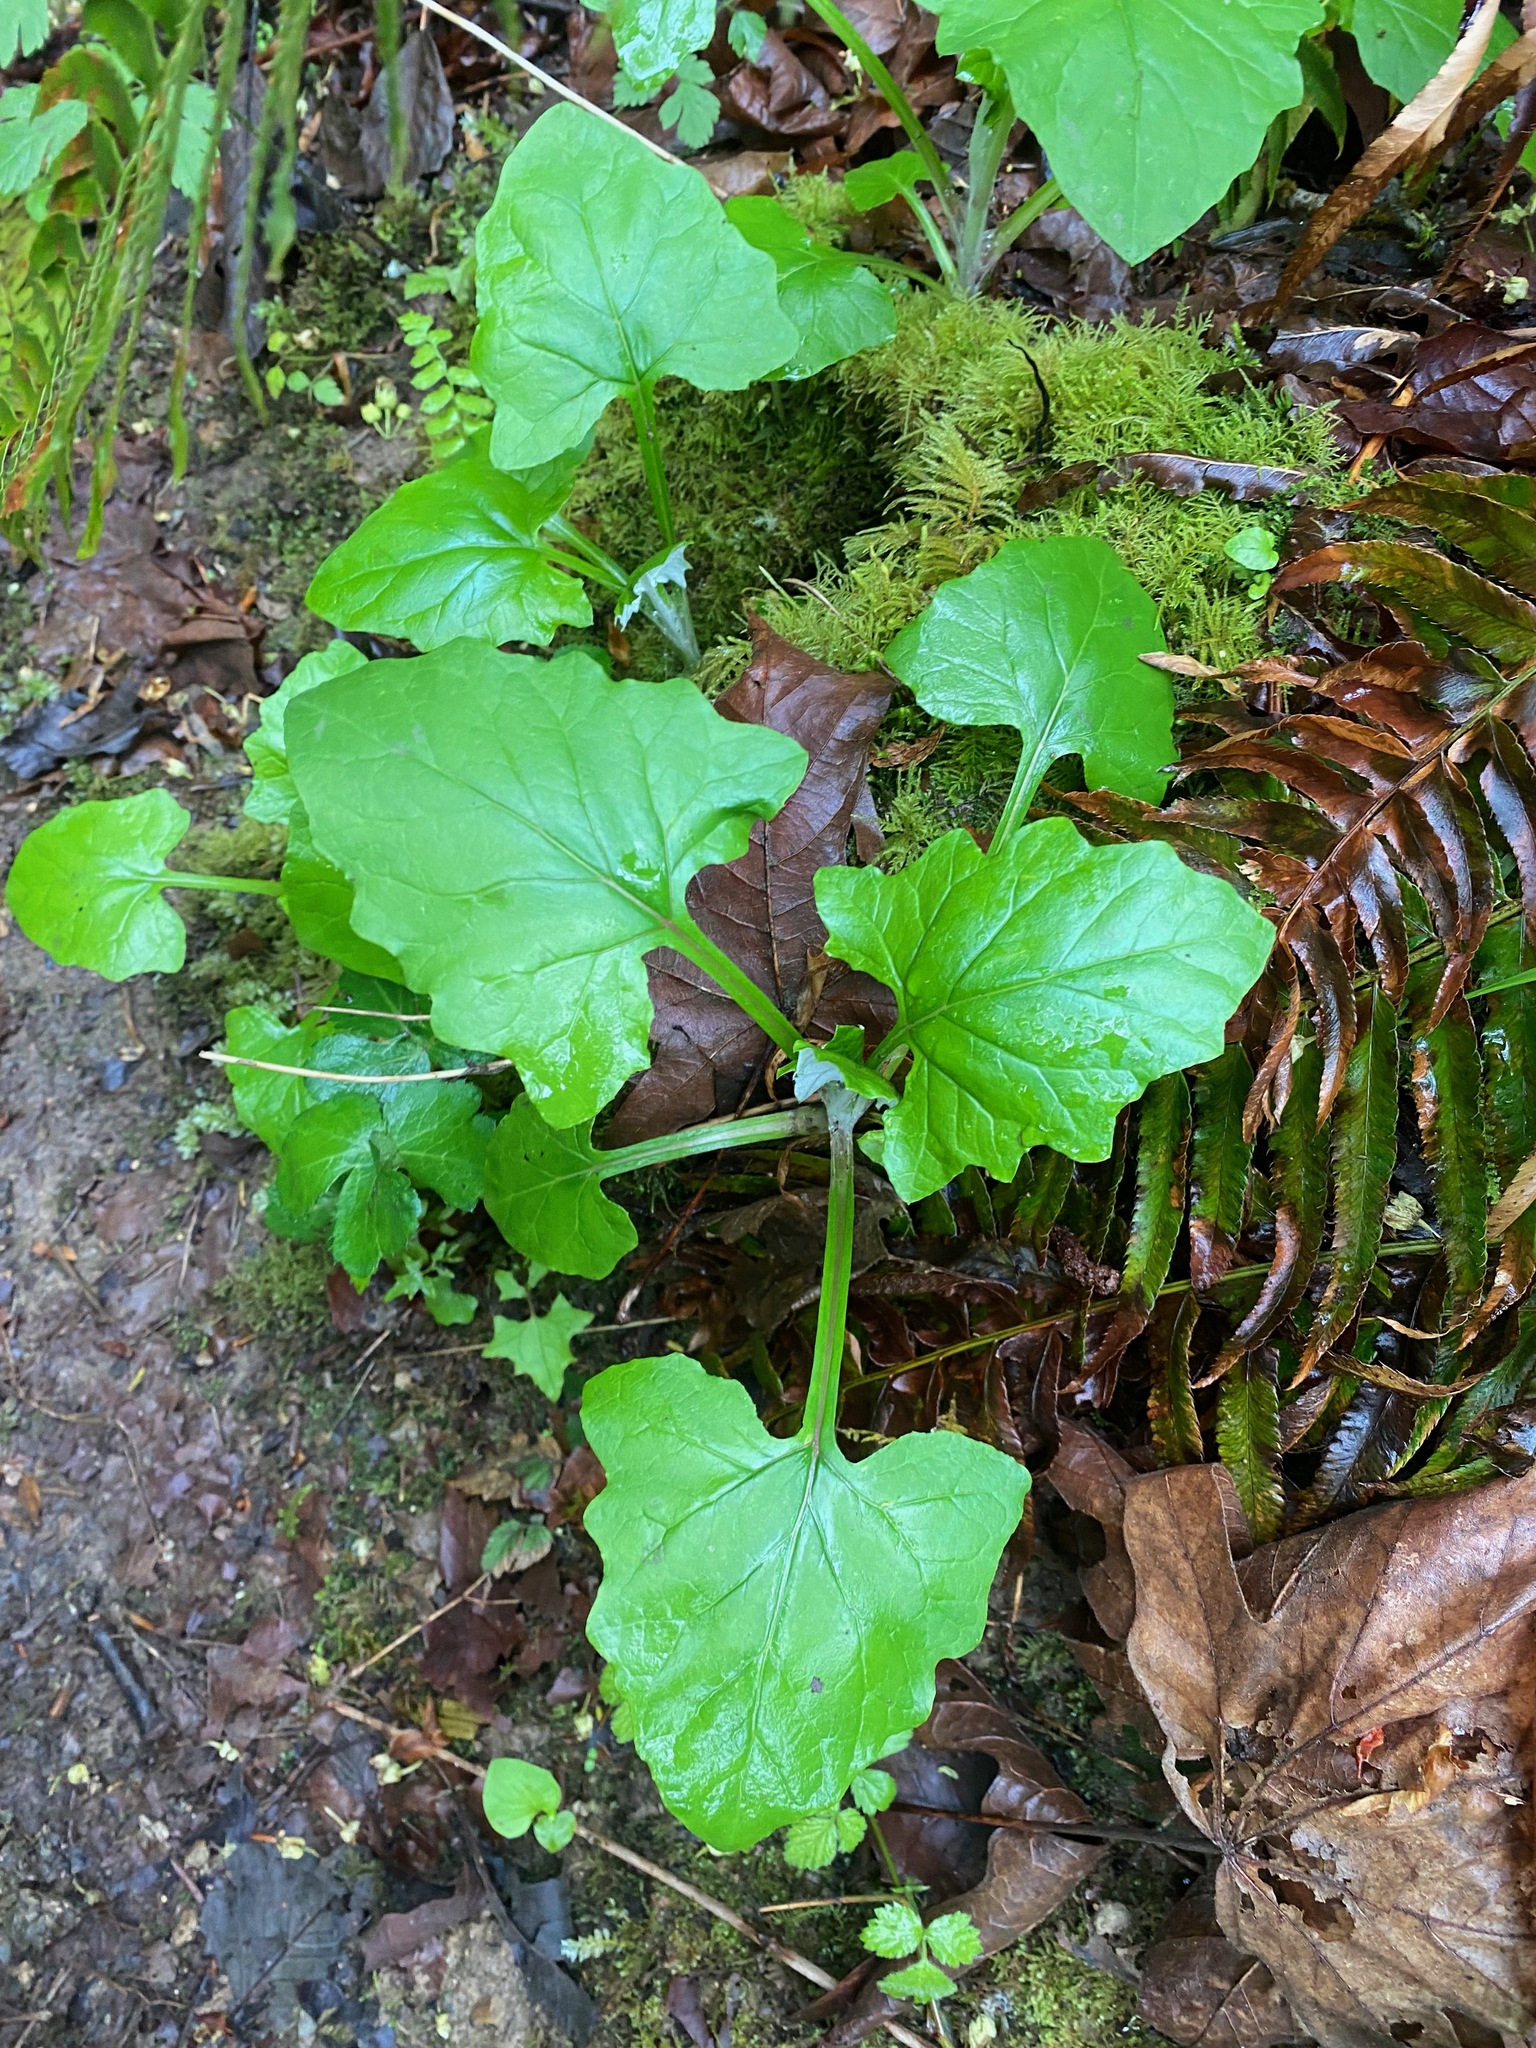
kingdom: Plantae
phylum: Tracheophyta
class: Magnoliopsida
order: Asterales
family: Asteraceae
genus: Adenocaulon
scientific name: Adenocaulon bicolor
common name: Trailplant
